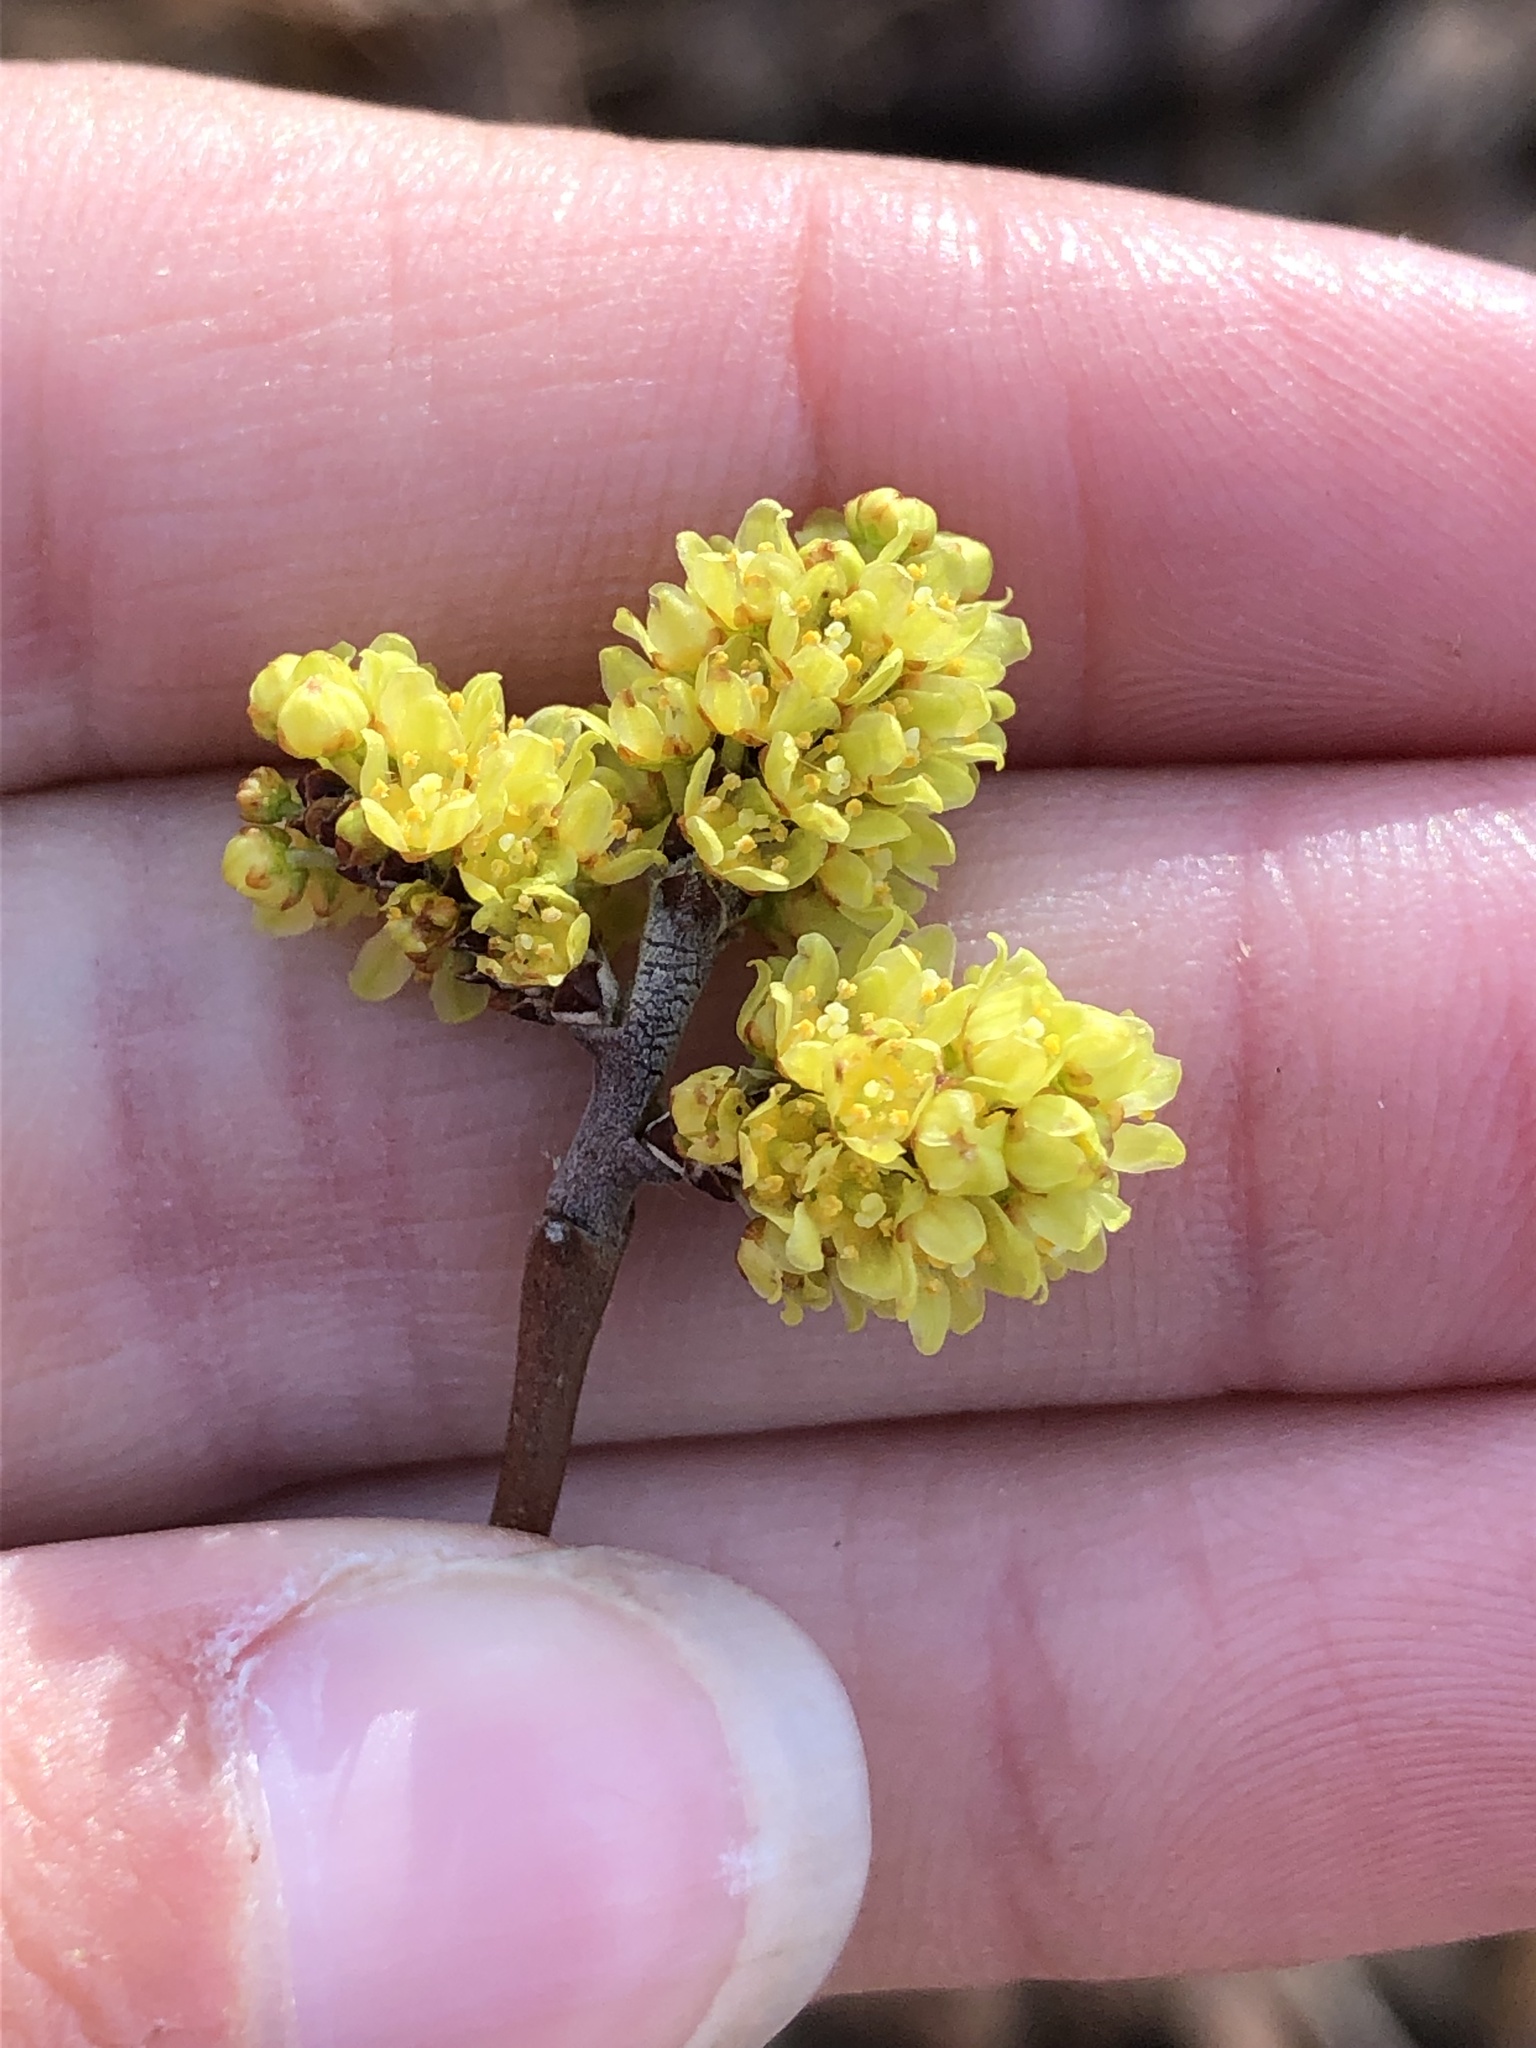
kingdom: Plantae
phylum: Tracheophyta
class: Magnoliopsida
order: Sapindales
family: Anacardiaceae
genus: Rhus
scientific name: Rhus aromatica
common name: Aromatic sumac
